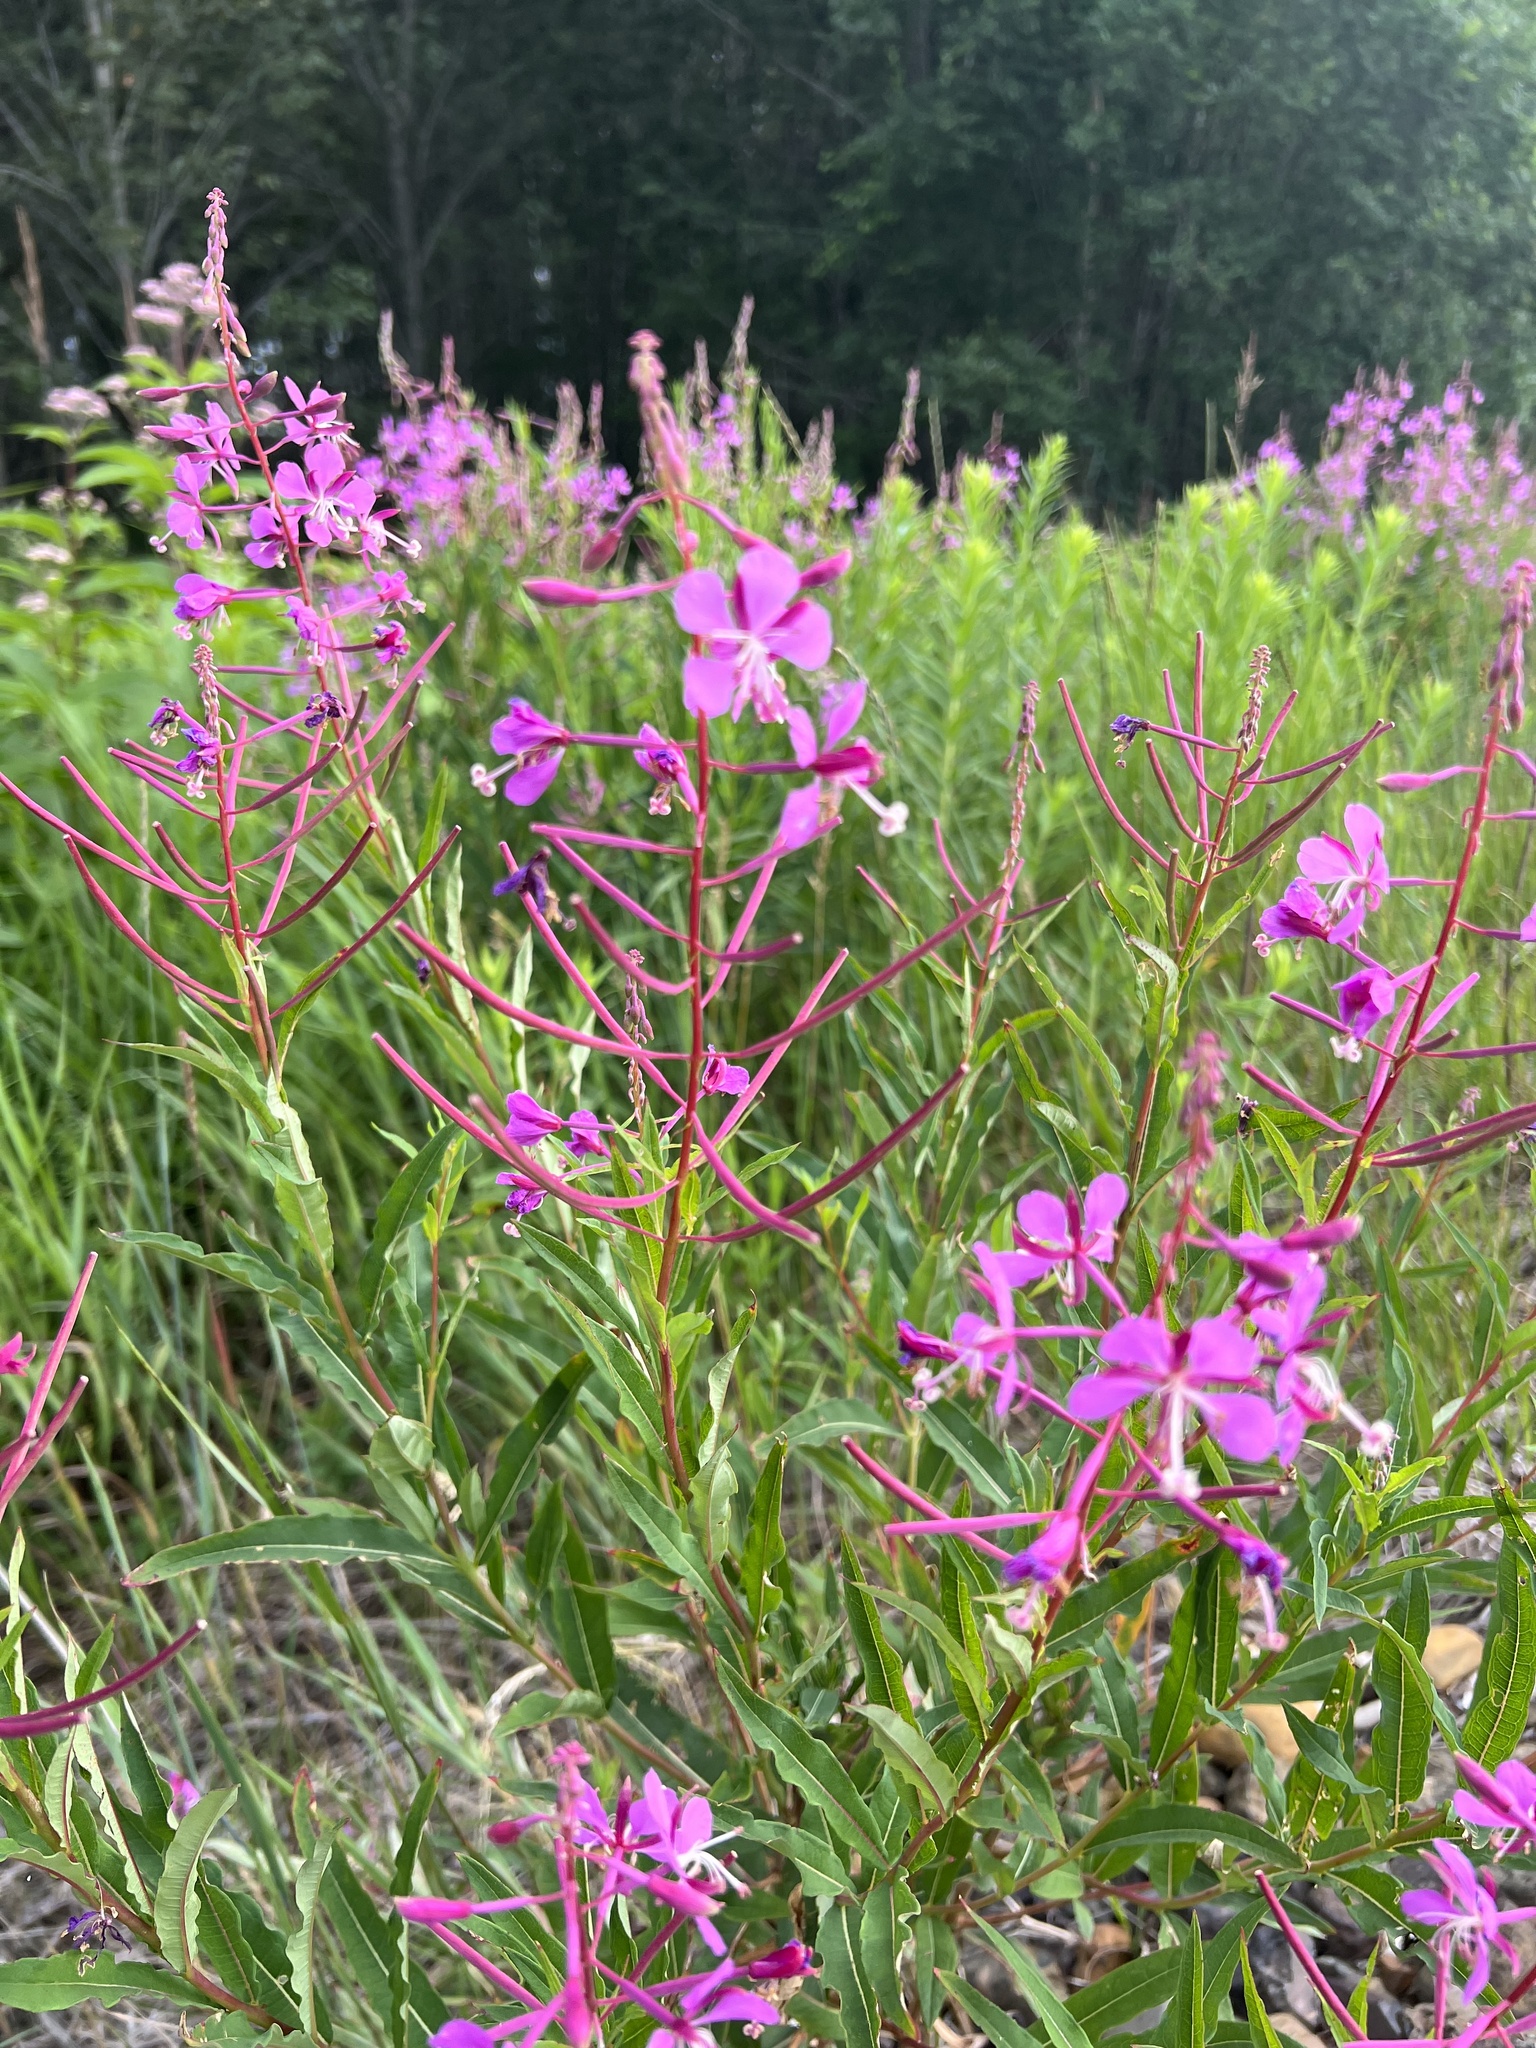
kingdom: Plantae
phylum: Tracheophyta
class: Magnoliopsida
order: Myrtales
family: Onagraceae
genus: Chamaenerion
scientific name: Chamaenerion angustifolium
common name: Fireweed
